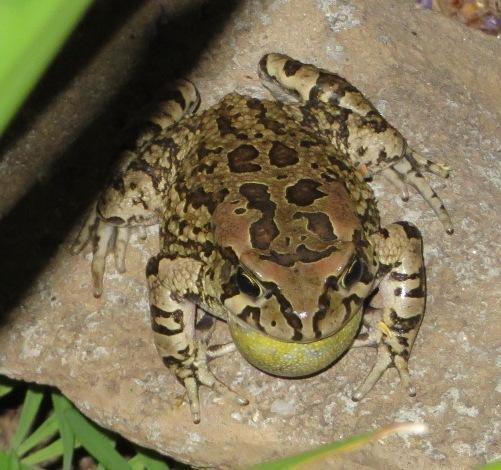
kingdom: Animalia
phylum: Chordata
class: Amphibia
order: Anura
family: Bufonidae
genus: Sclerophrys
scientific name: Sclerophrys capensis
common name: Ranger’s toad
